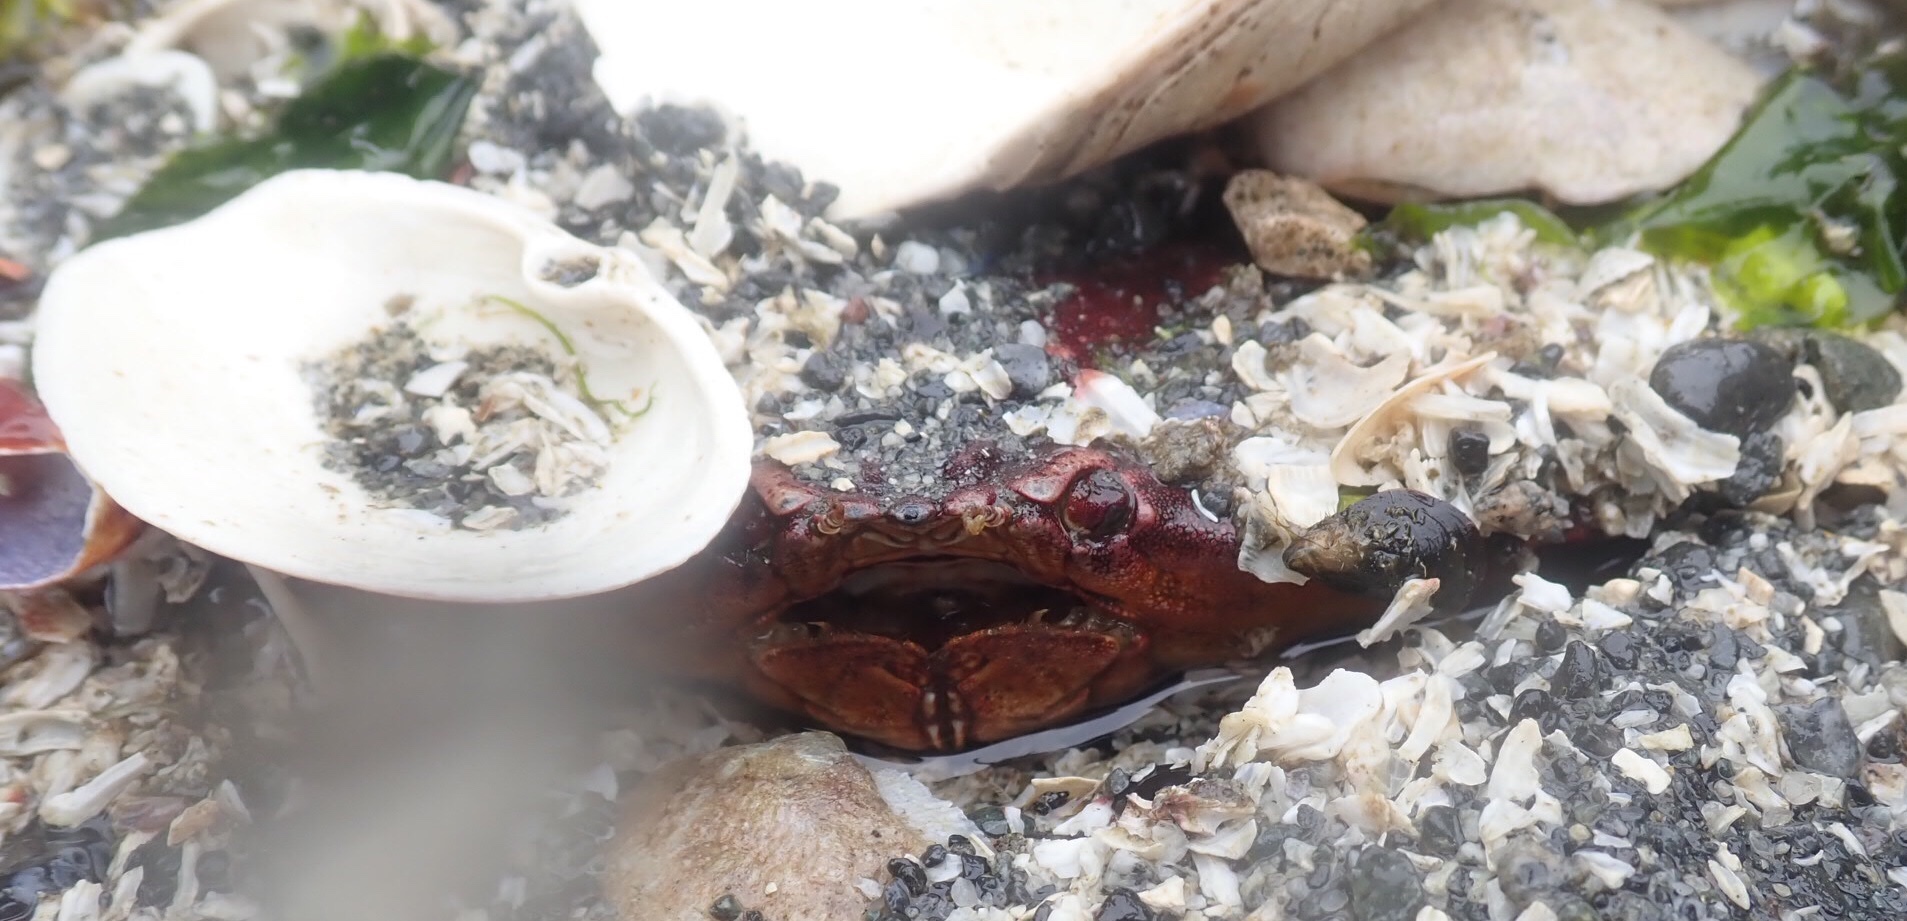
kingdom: Animalia
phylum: Arthropoda
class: Malacostraca
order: Decapoda
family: Cancridae
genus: Cancer
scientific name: Cancer productus
